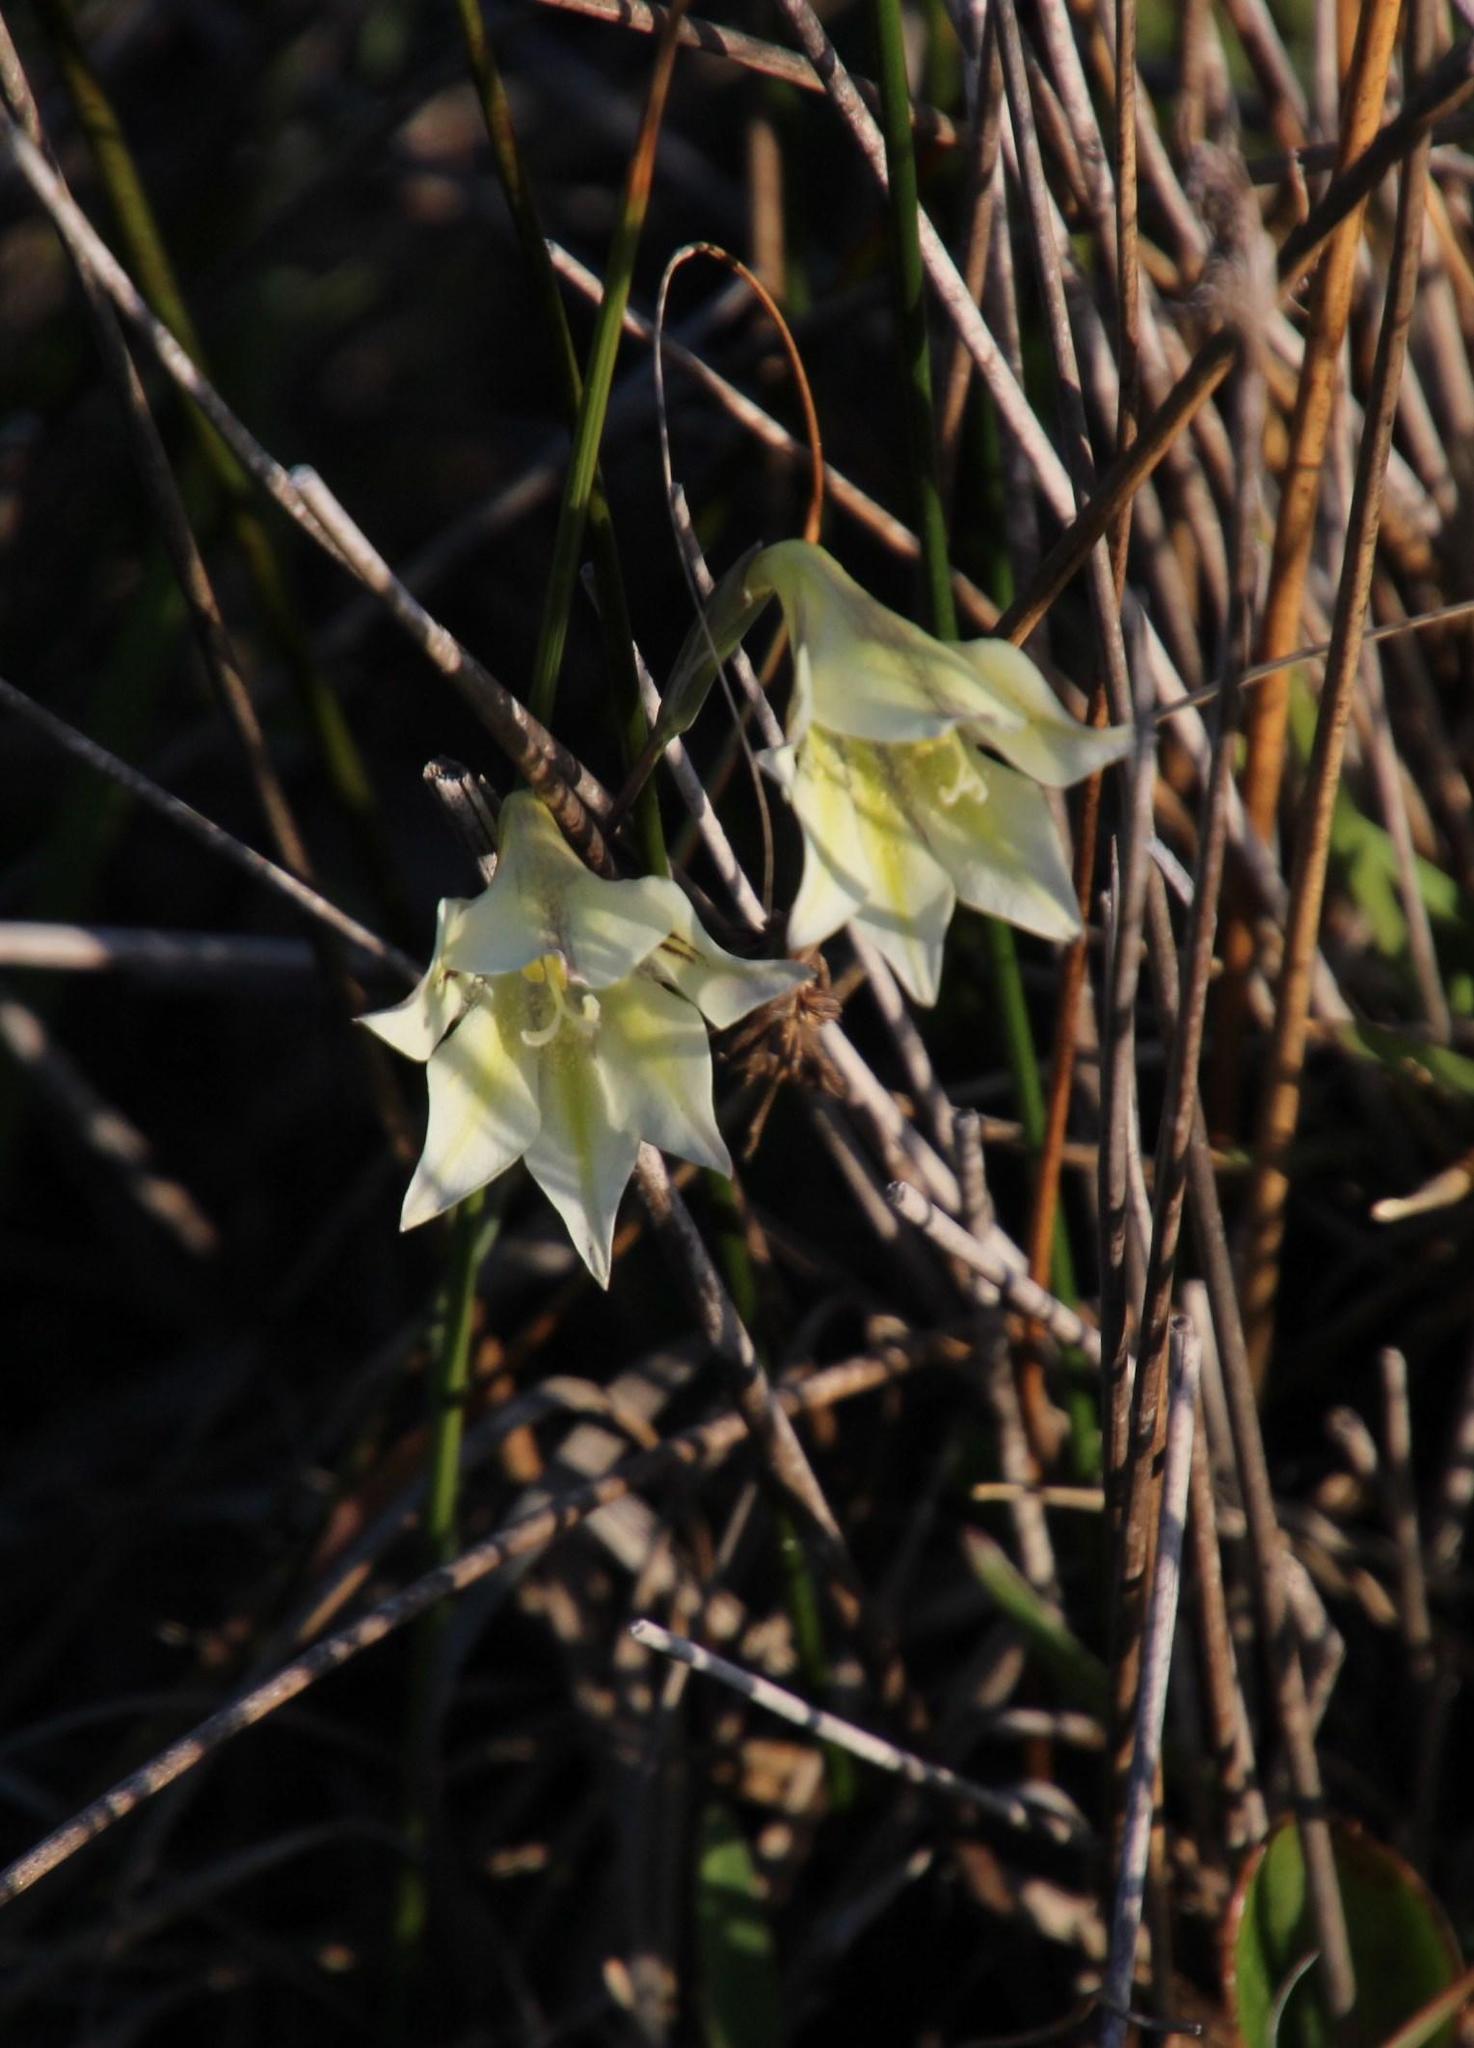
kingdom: Plantae
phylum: Tracheophyta
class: Liliopsida
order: Asparagales
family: Iridaceae
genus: Gladiolus
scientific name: Gladiolus tristis
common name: Ever-flowering gladiolus
